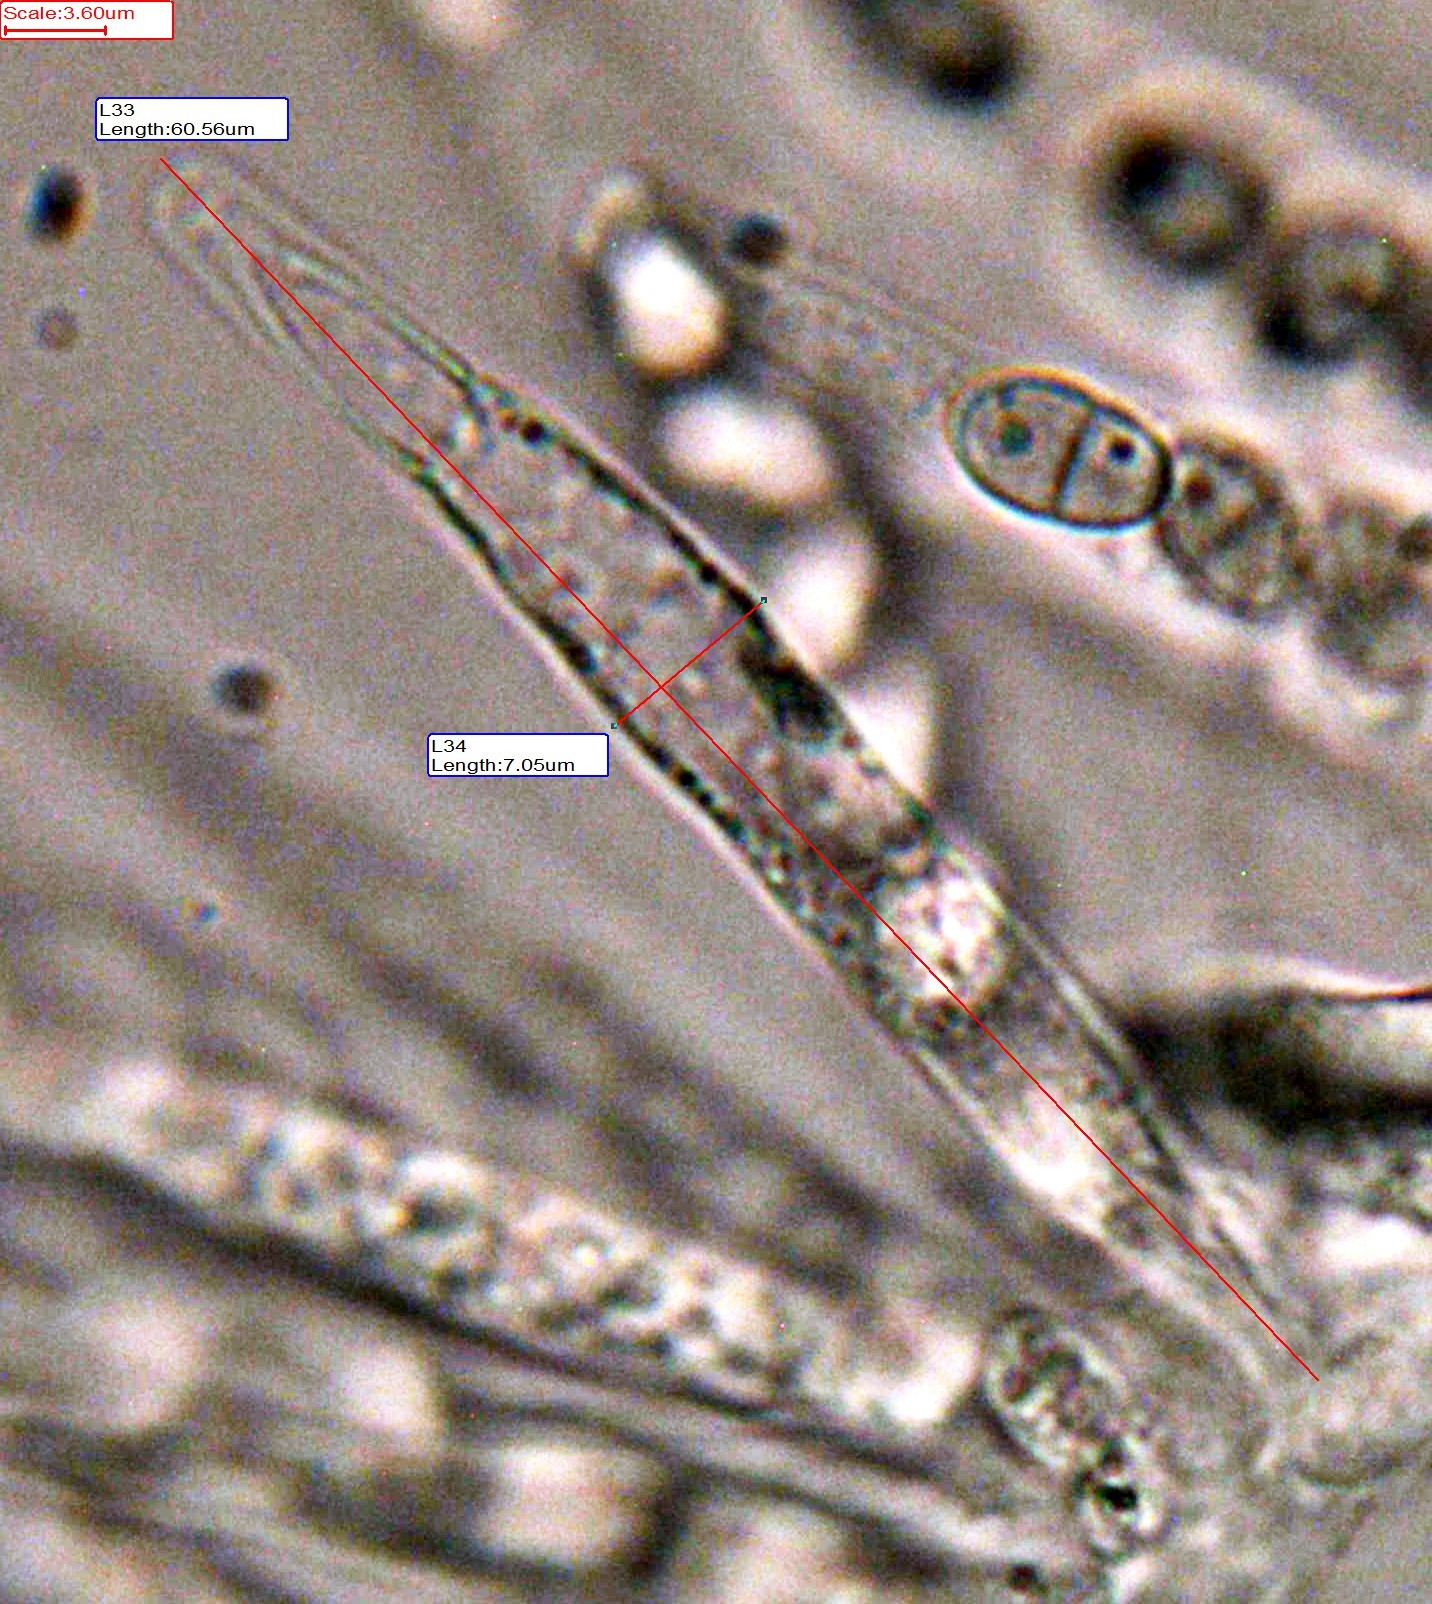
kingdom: Fungi
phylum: Ascomycota
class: Sordariomycetes
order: Hypocreales
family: Nectriaceae
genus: Hydropisphaera
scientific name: Hydropisphaera peziza
